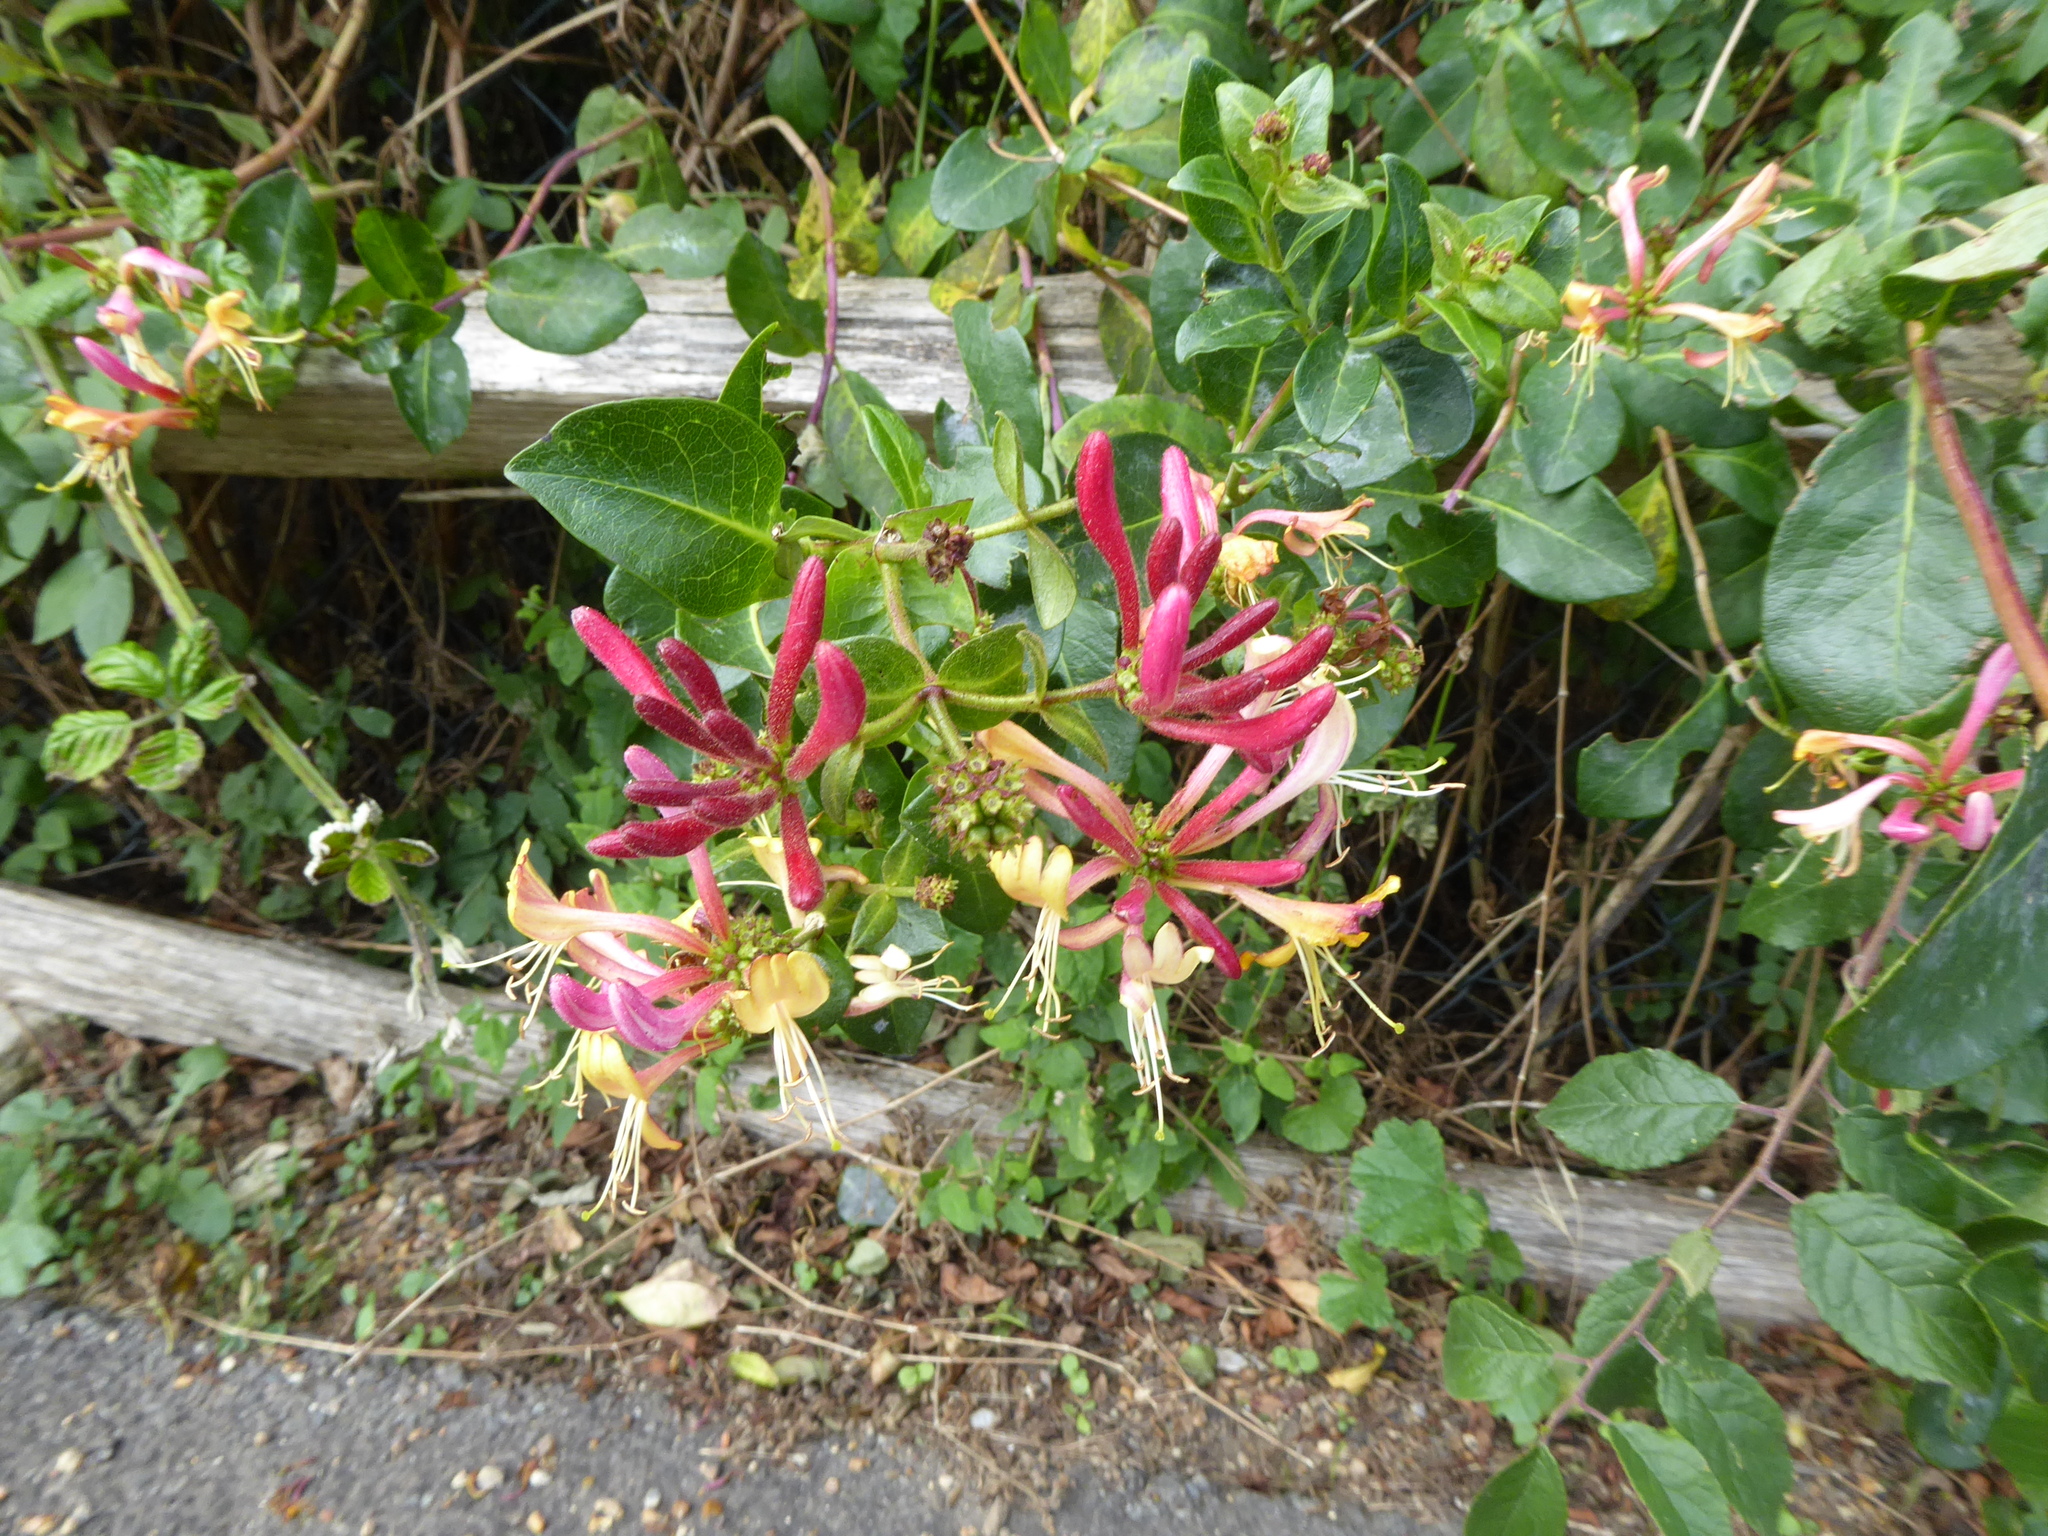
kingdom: Plantae
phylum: Tracheophyta
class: Magnoliopsida
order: Dipsacales
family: Caprifoliaceae
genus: Lonicera
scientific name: Lonicera periclymenum
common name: European honeysuckle
